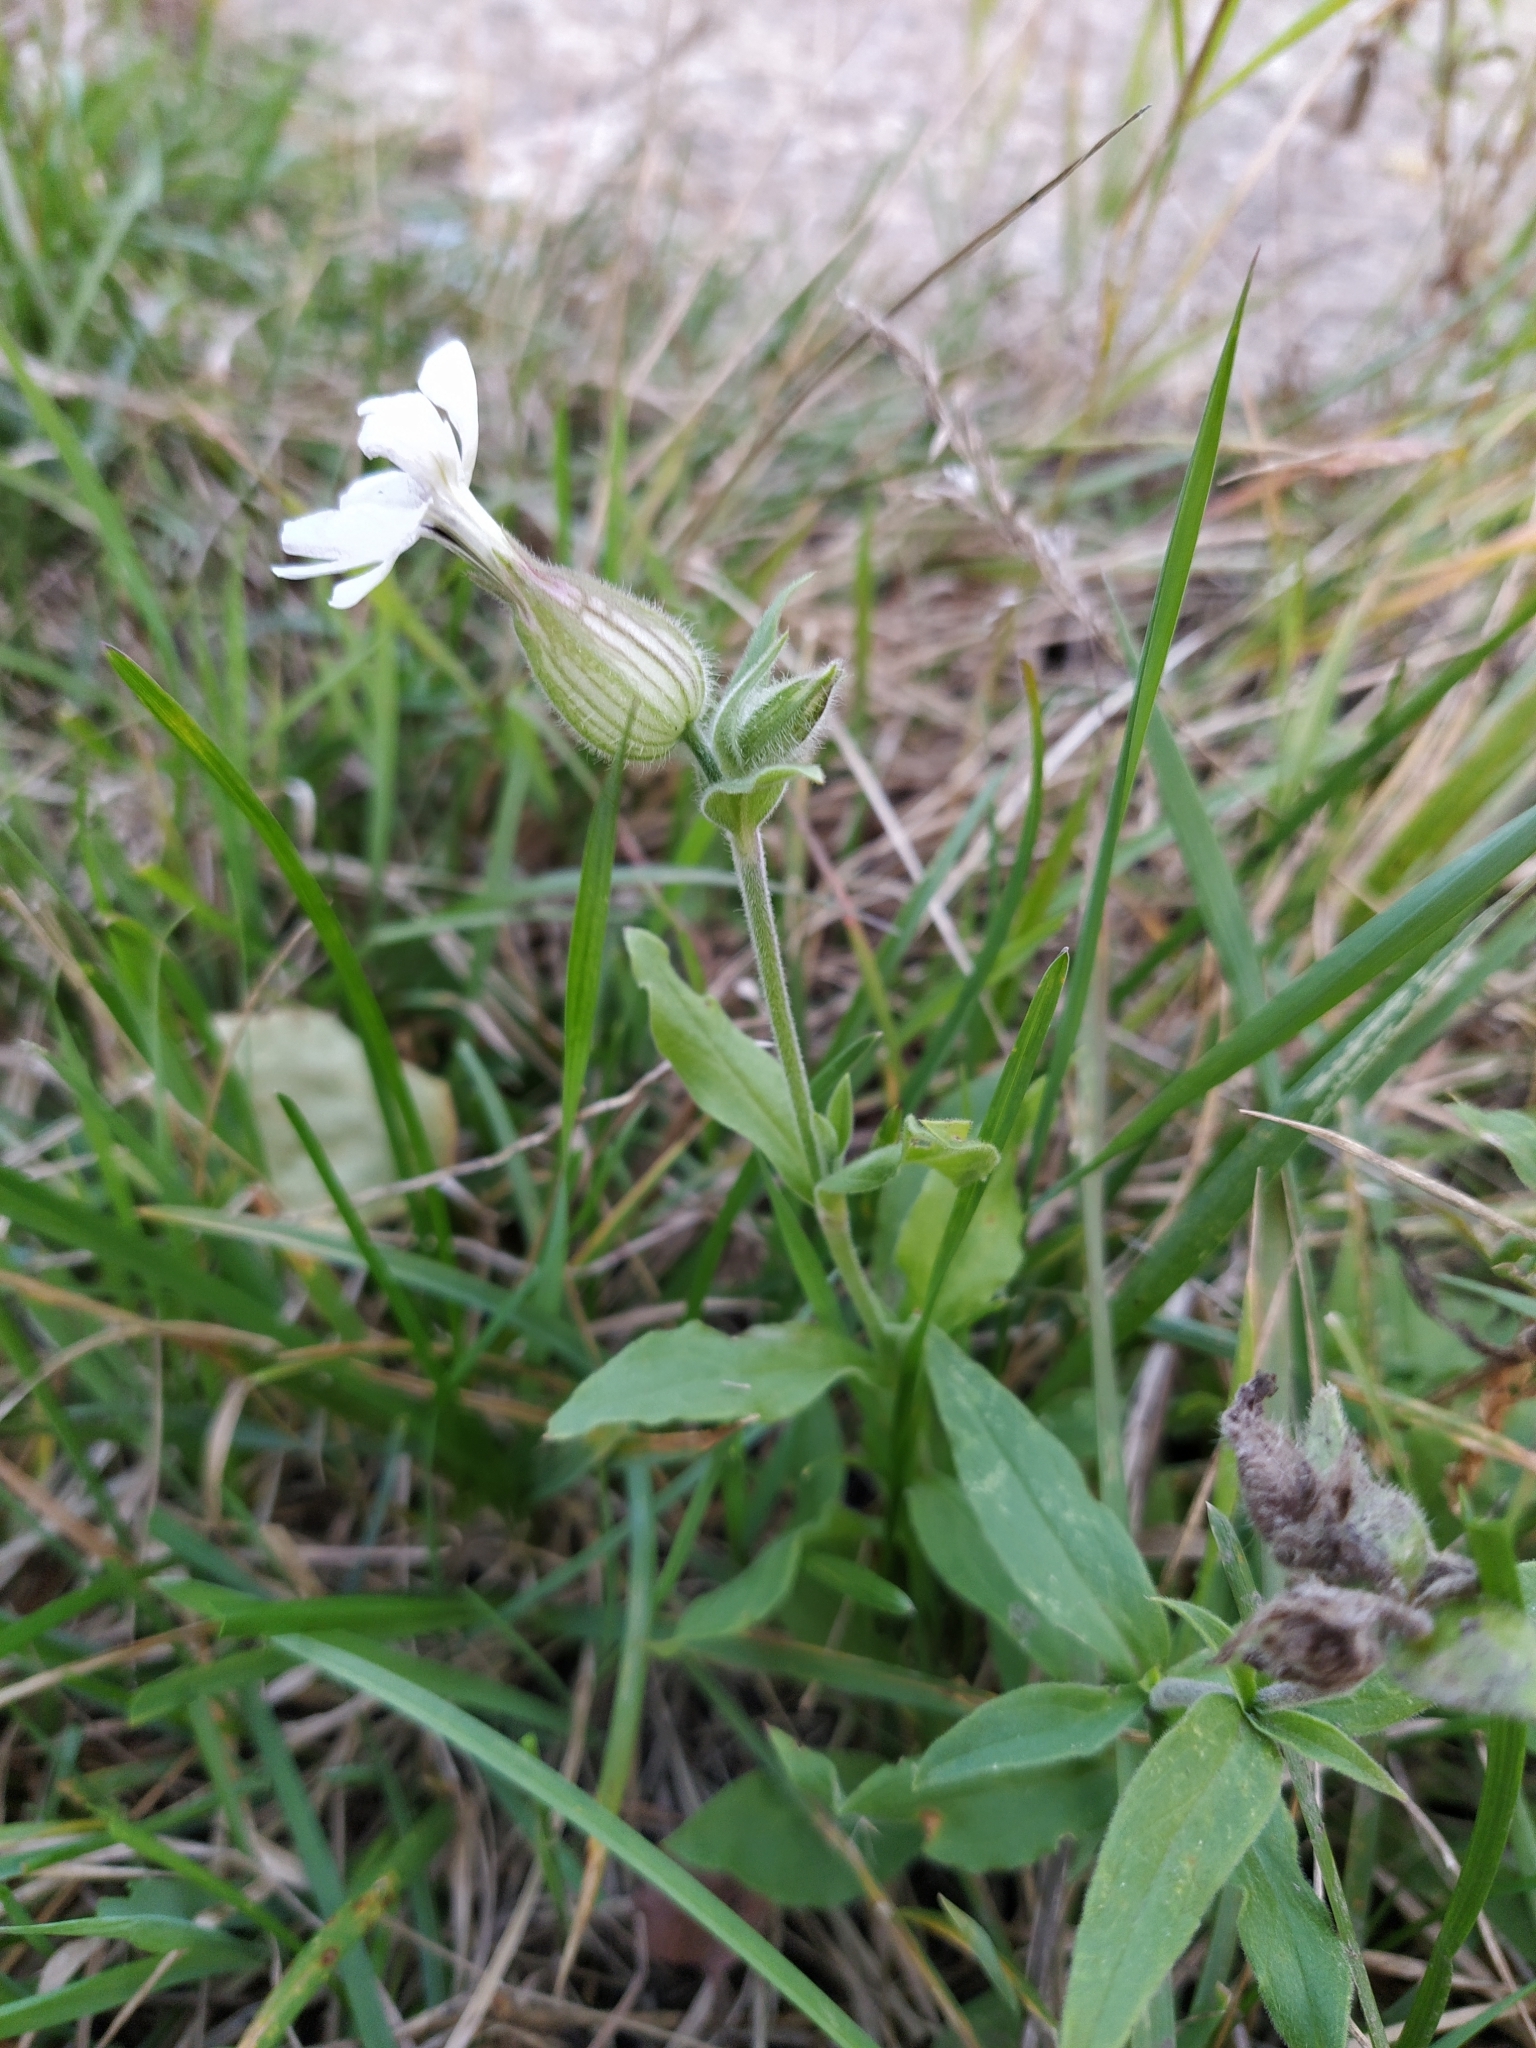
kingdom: Plantae
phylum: Tracheophyta
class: Magnoliopsida
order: Caryophyllales
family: Caryophyllaceae
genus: Silene
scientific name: Silene latifolia
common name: White campion
